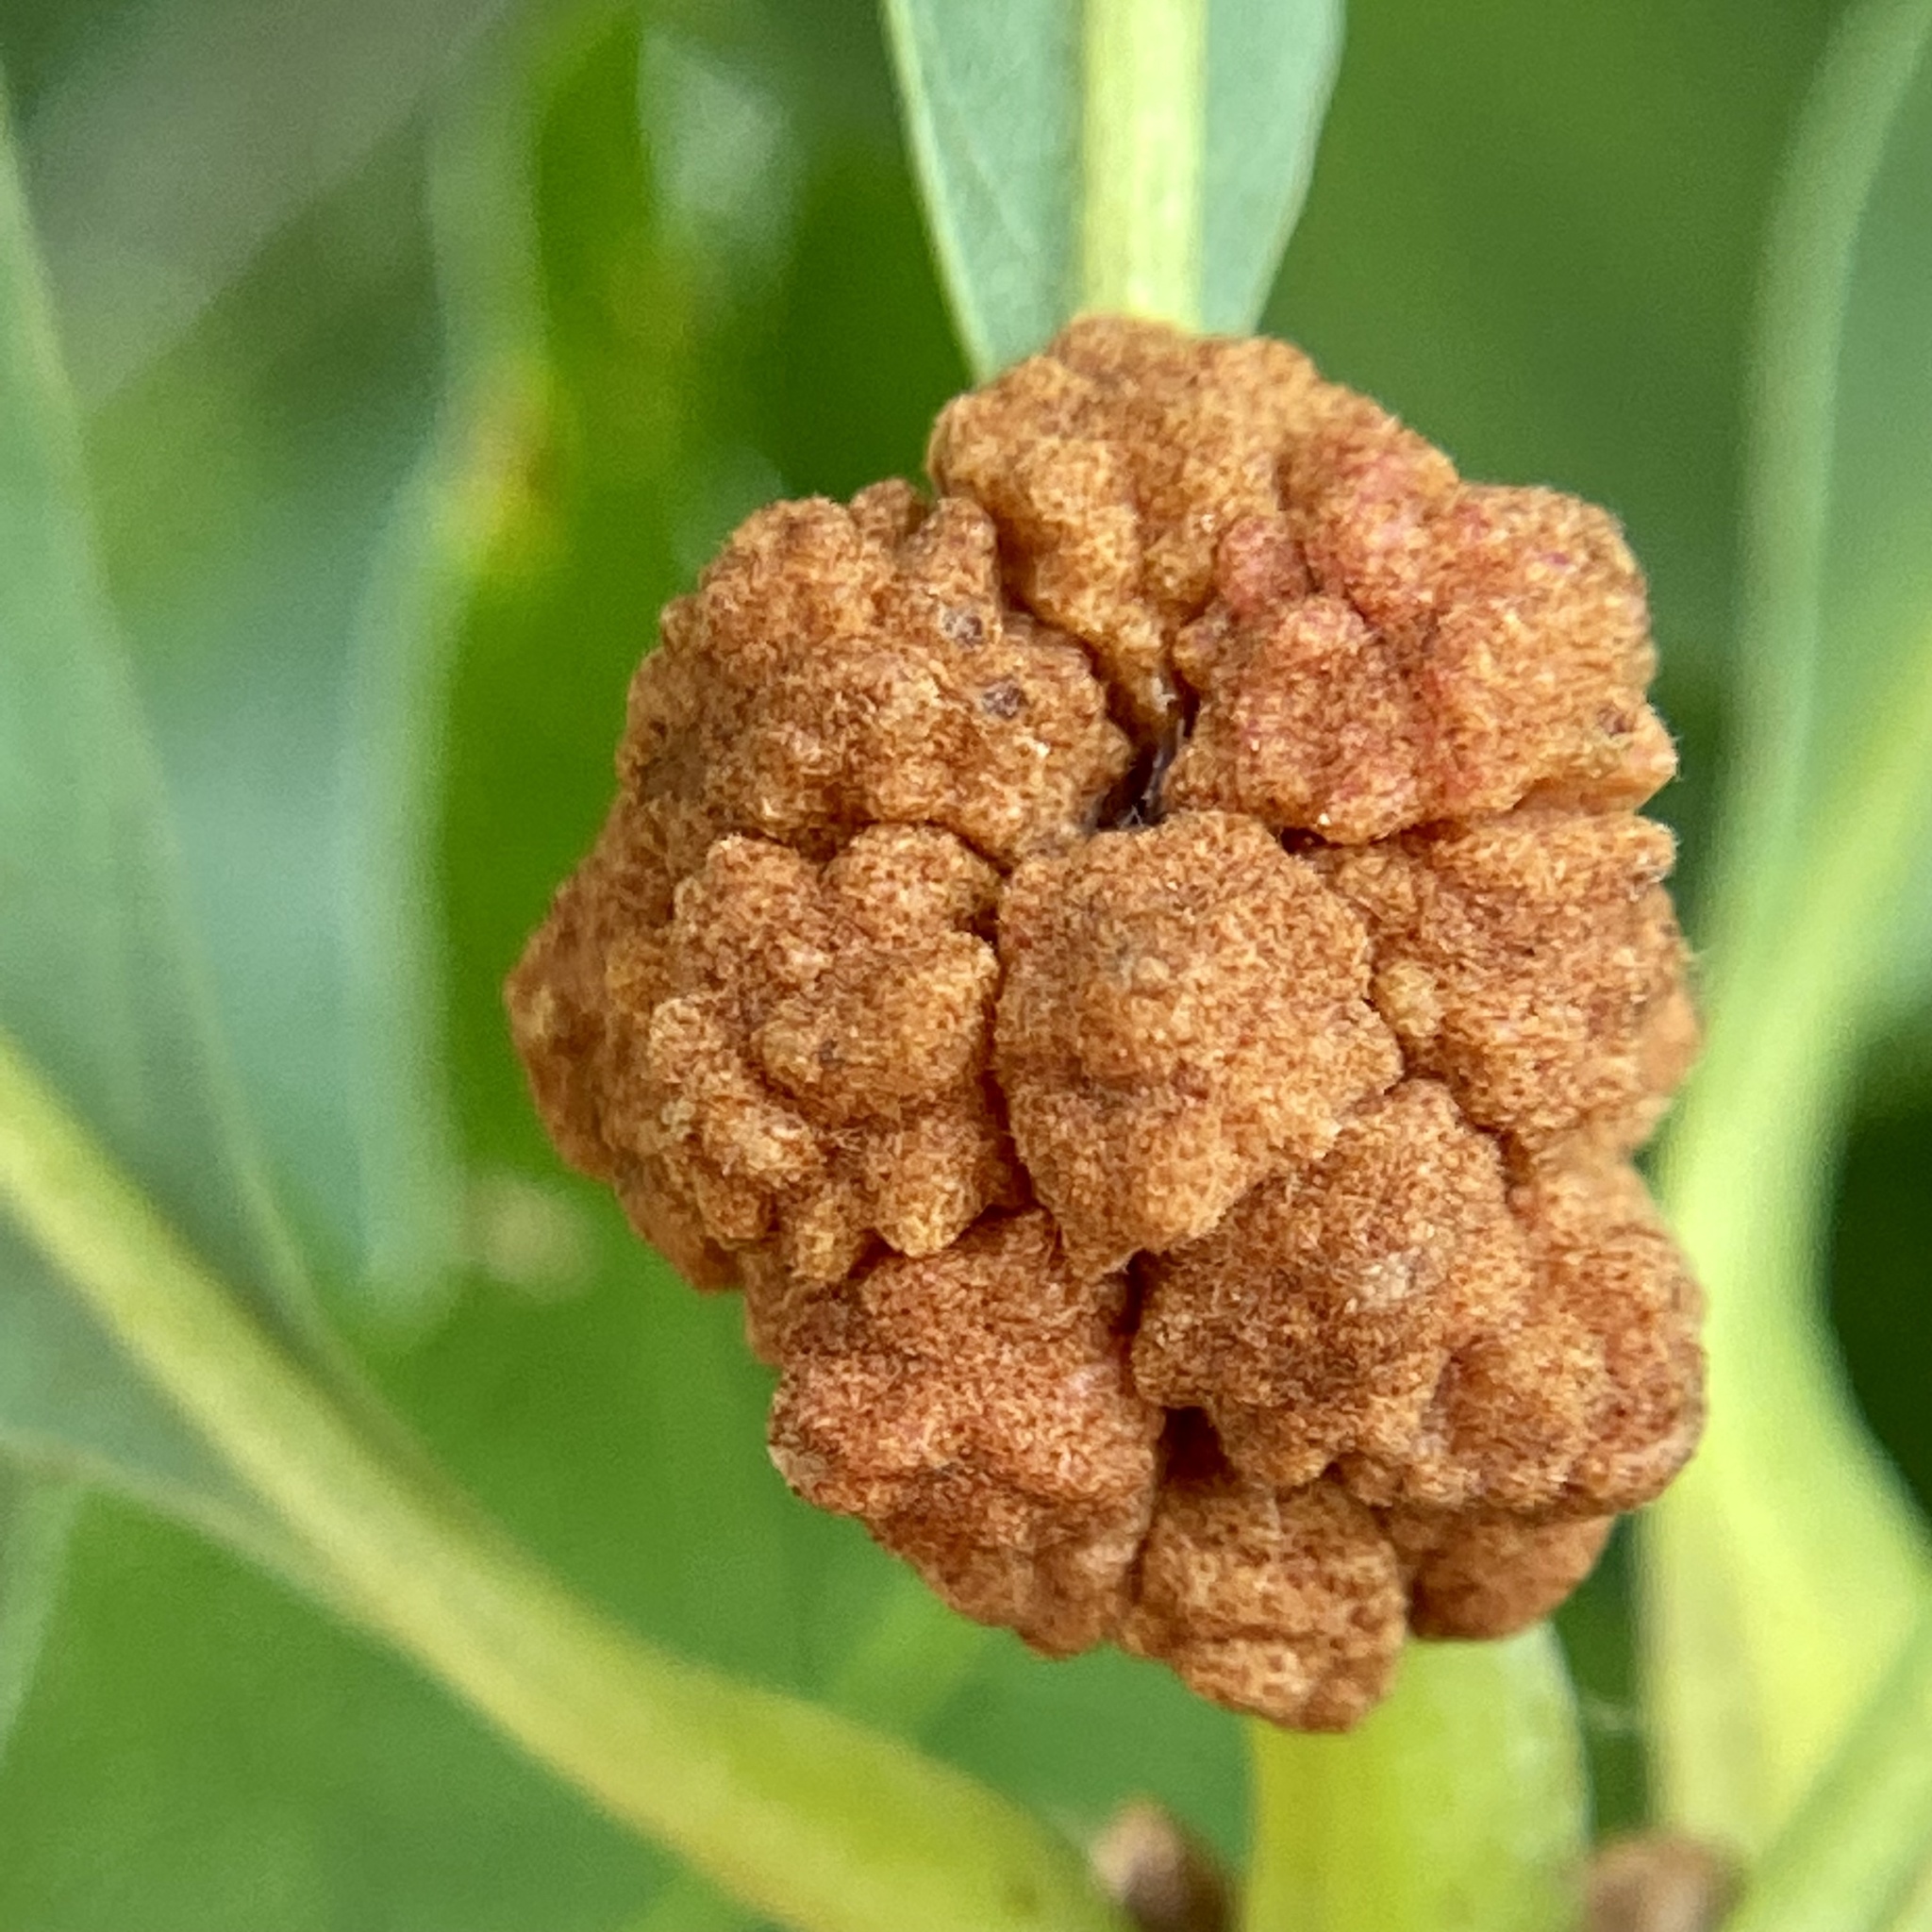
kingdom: Animalia
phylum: Arthropoda
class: Insecta
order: Hymenoptera
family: Cynipidae
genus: Andricus
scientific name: Andricus
